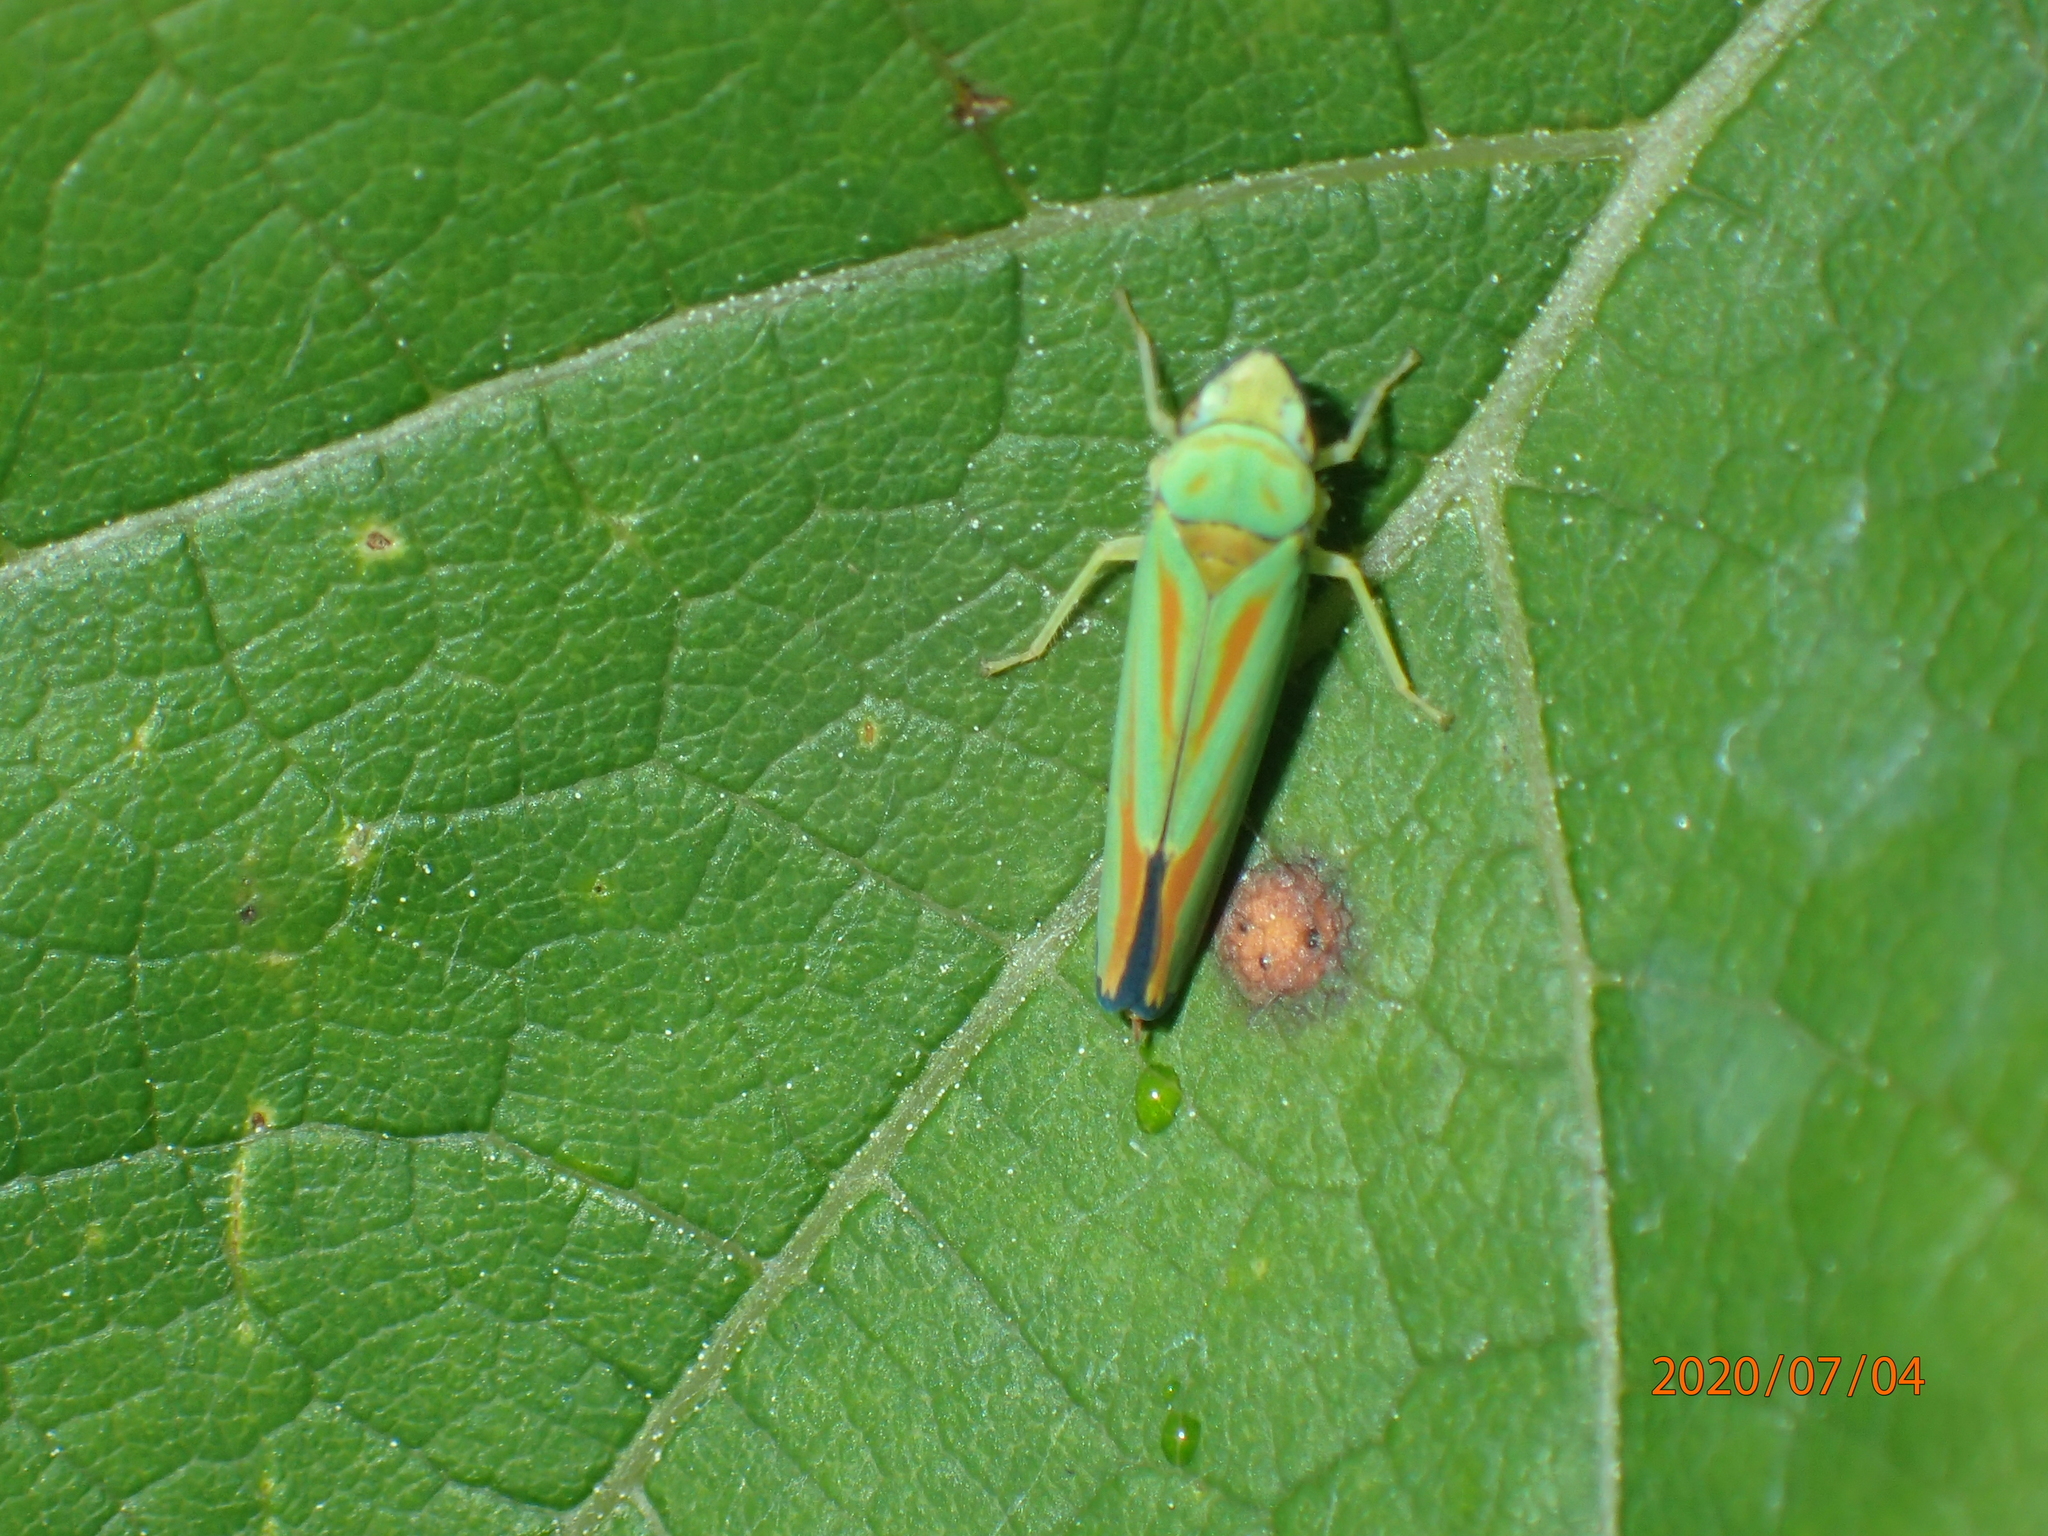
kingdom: Animalia
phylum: Arthropoda
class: Insecta
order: Hemiptera
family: Cicadellidae
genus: Graphocephala
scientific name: Graphocephala fennahi
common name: Rhododendron leafhopper
